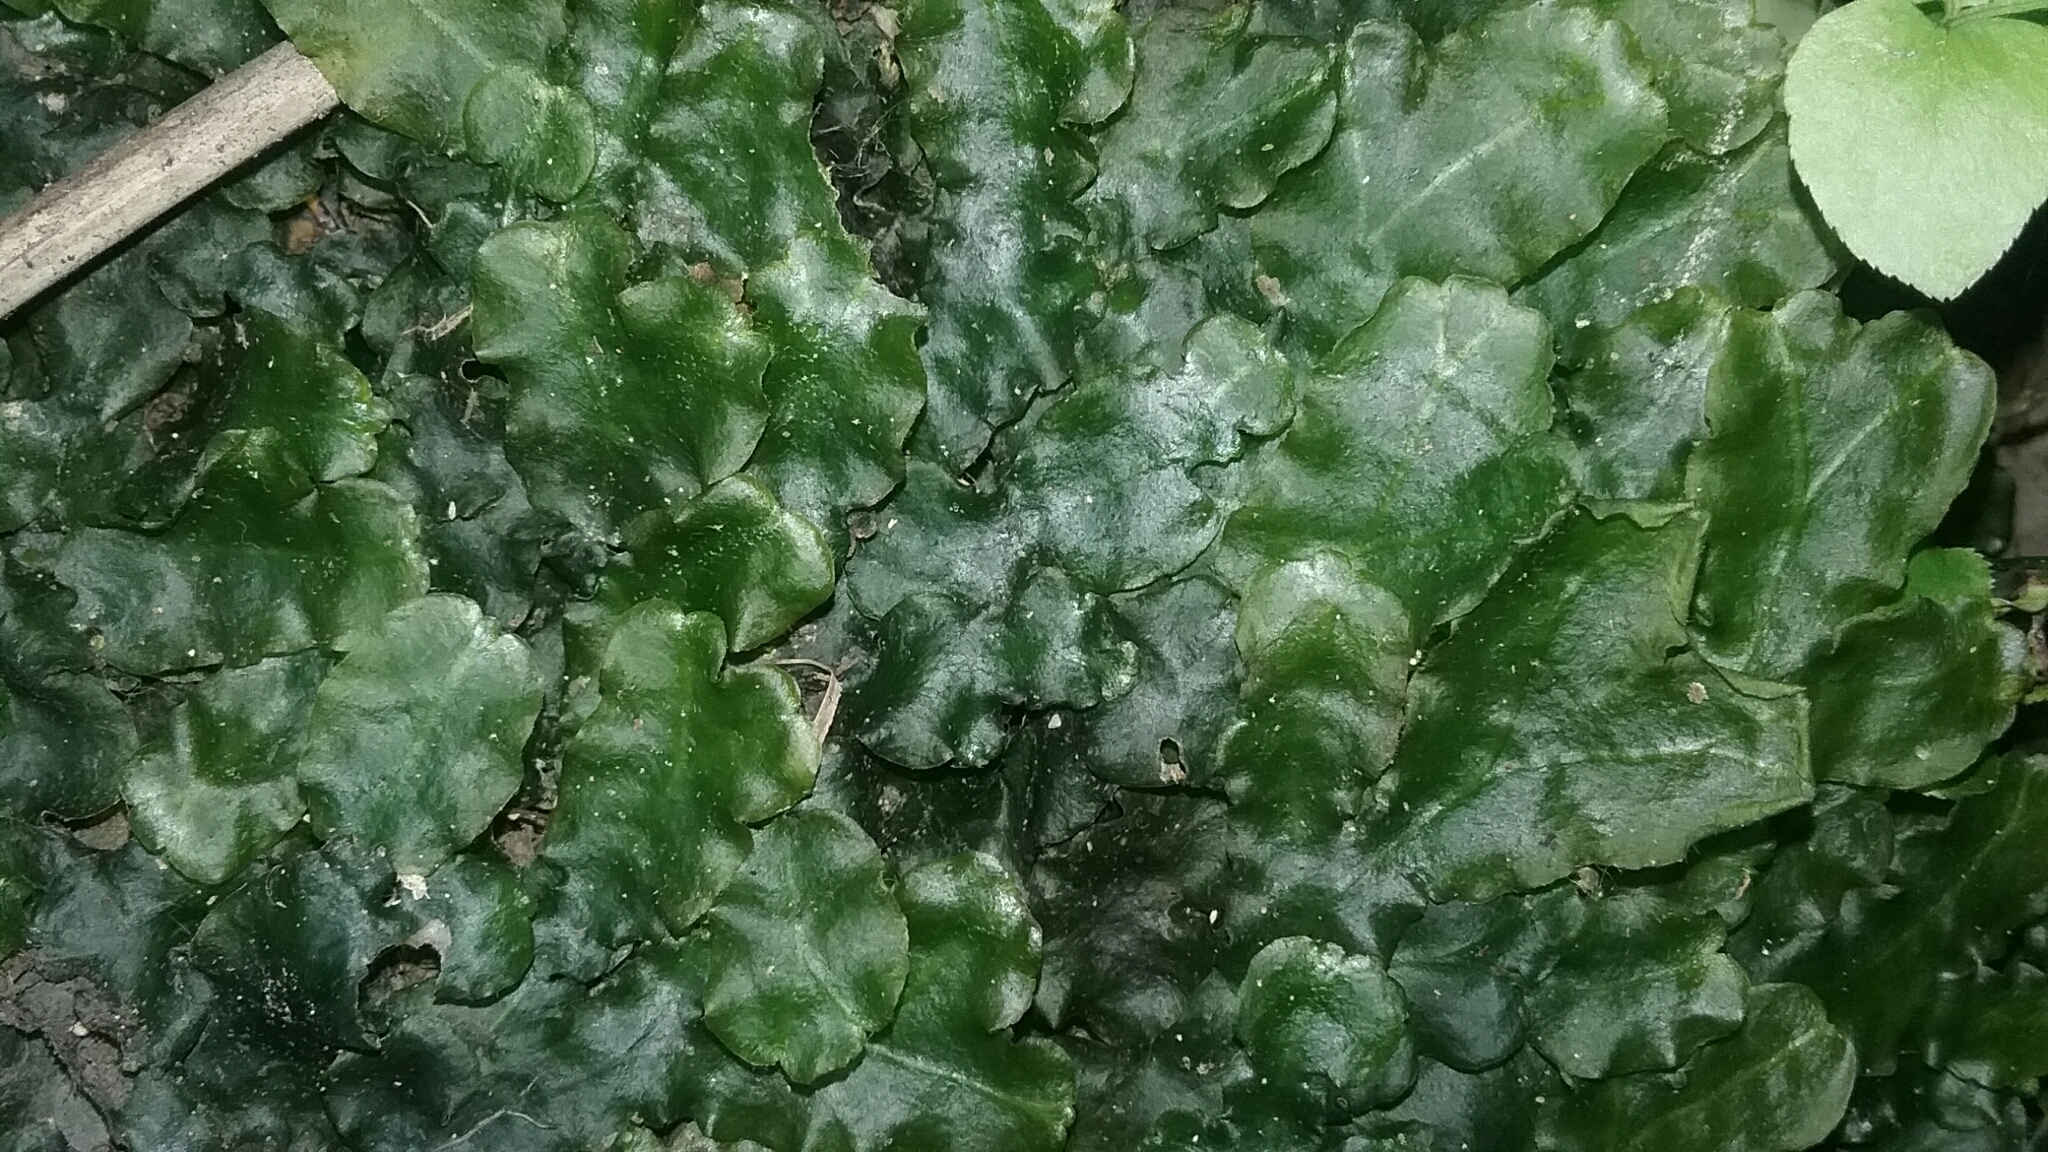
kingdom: Plantae
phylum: Marchantiophyta
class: Marchantiopsida
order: Marchantiales
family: Dumortieraceae
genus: Dumortiera
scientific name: Dumortiera hirsuta
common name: Dumortier's liverwort
